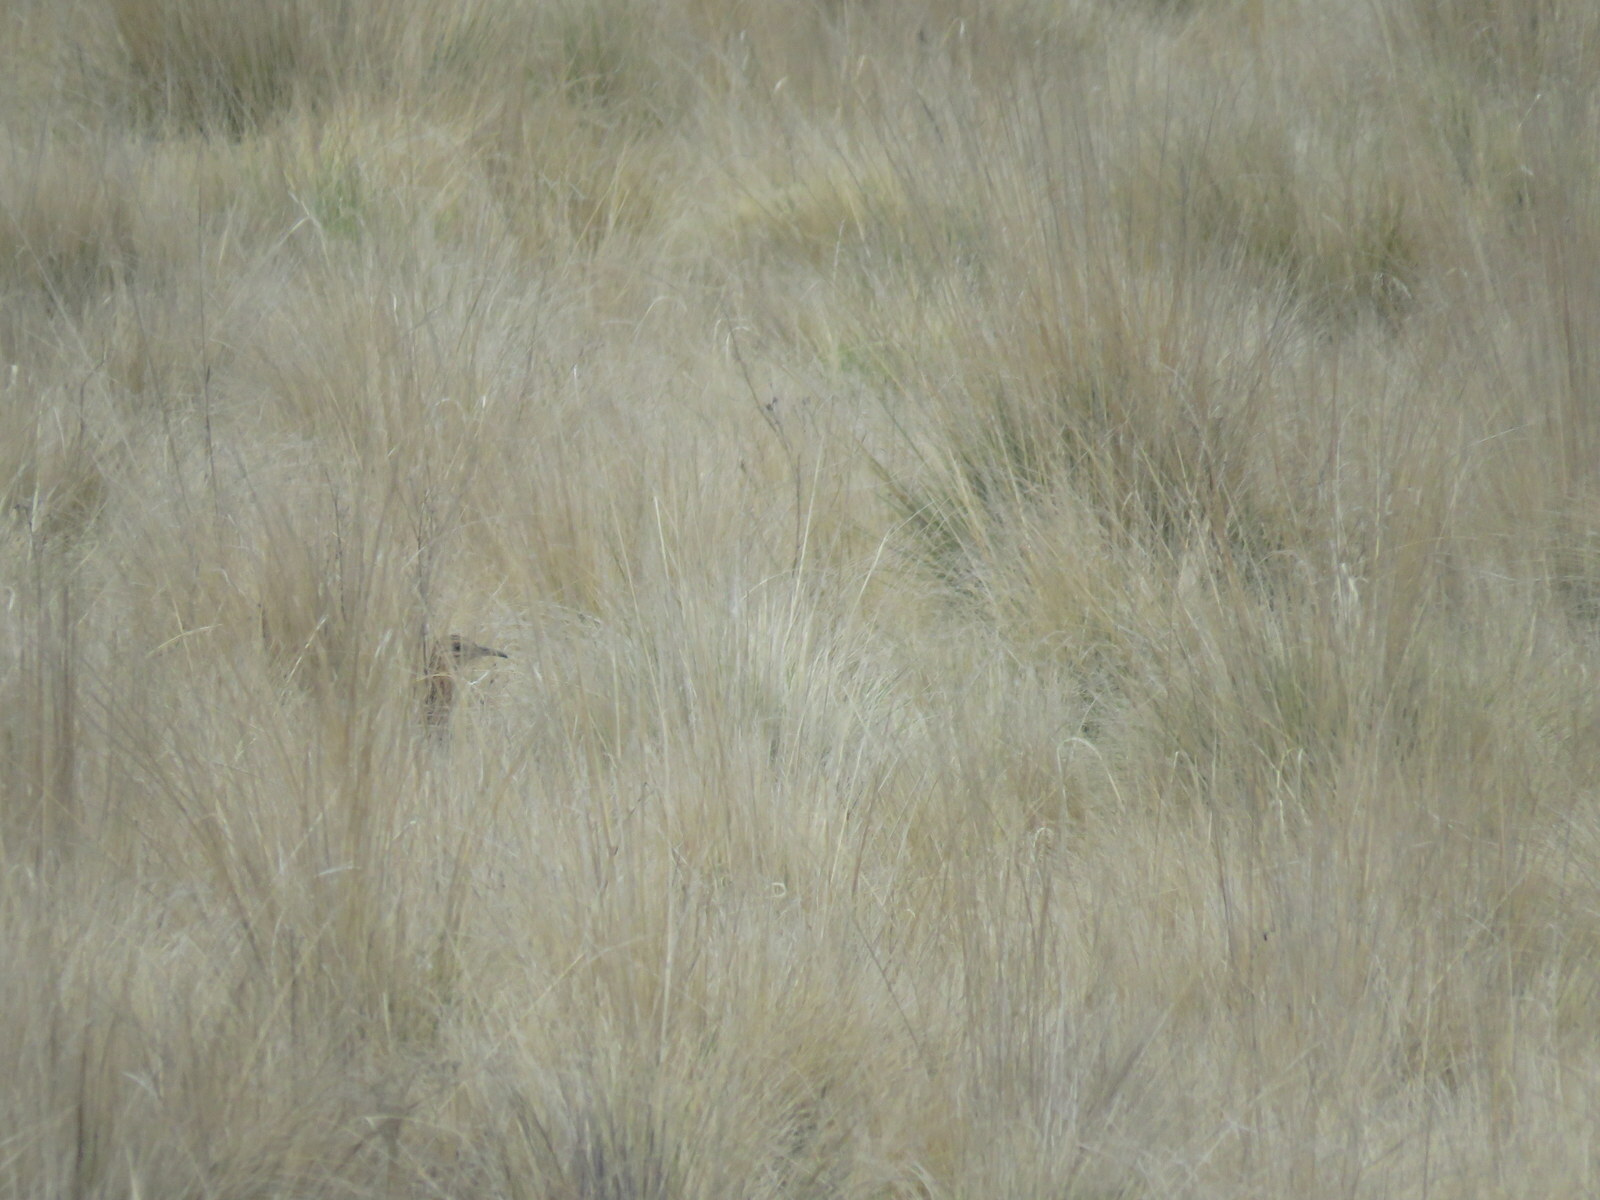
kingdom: Animalia
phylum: Chordata
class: Aves
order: Tinamiformes
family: Tinamidae
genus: Rhynchotus
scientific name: Rhynchotus maculicollis
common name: Huayco tinamou
